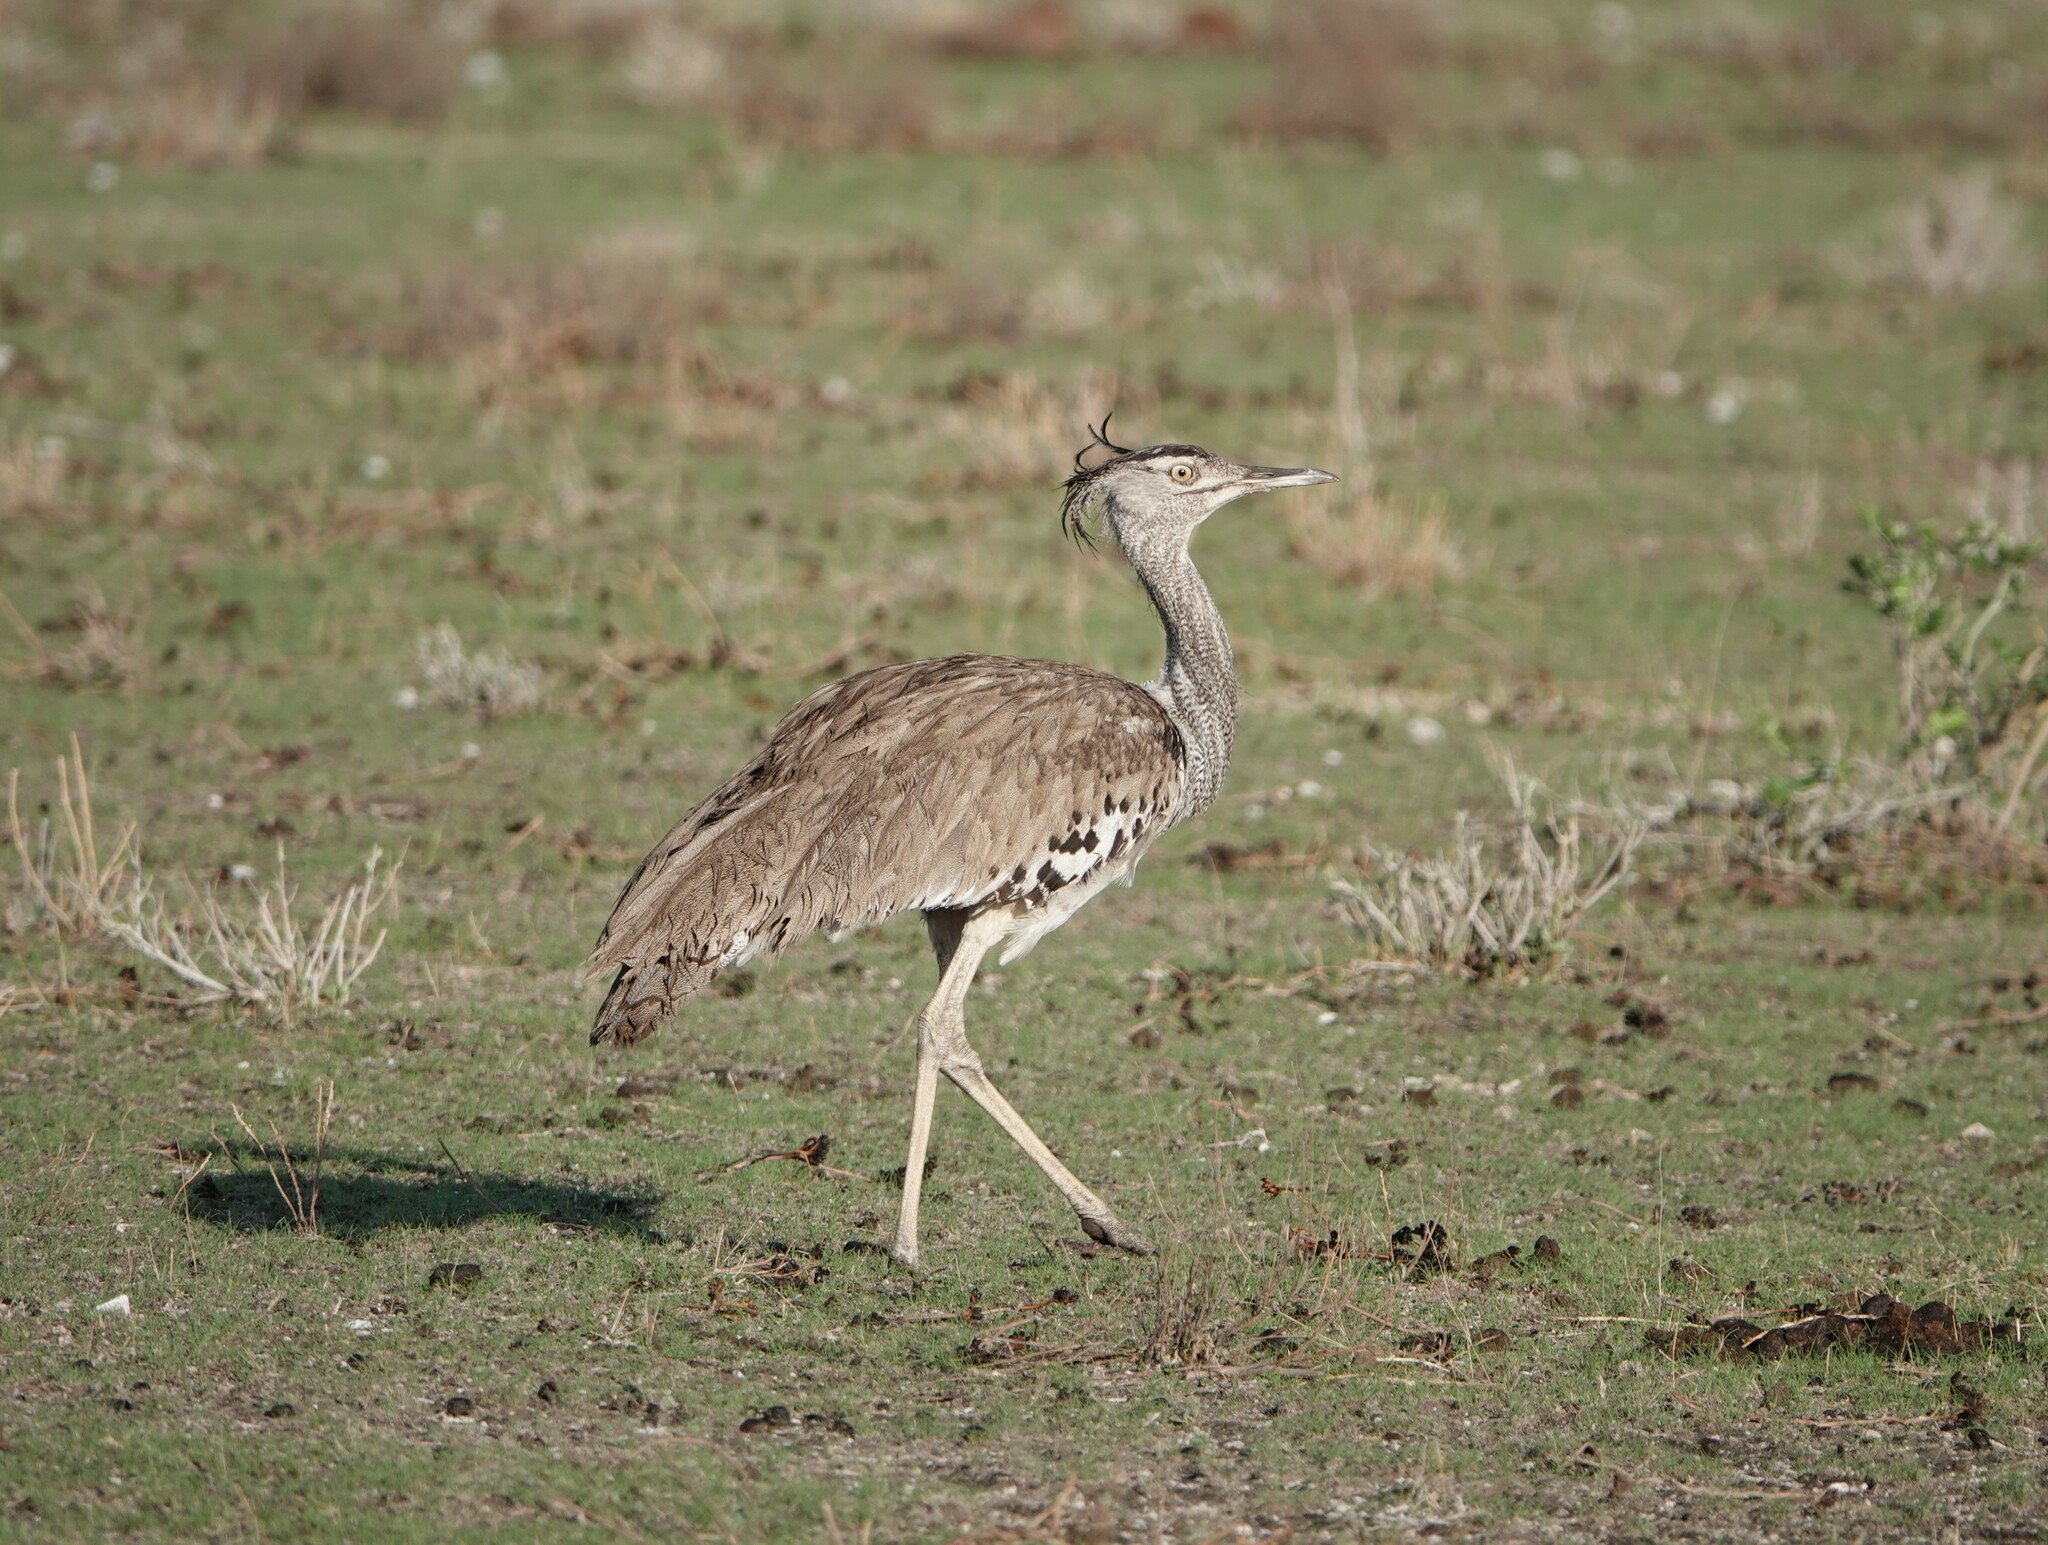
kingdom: Animalia
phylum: Chordata
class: Aves
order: Otidiformes
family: Otididae
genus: Ardeotis
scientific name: Ardeotis kori
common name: Kori bustard
